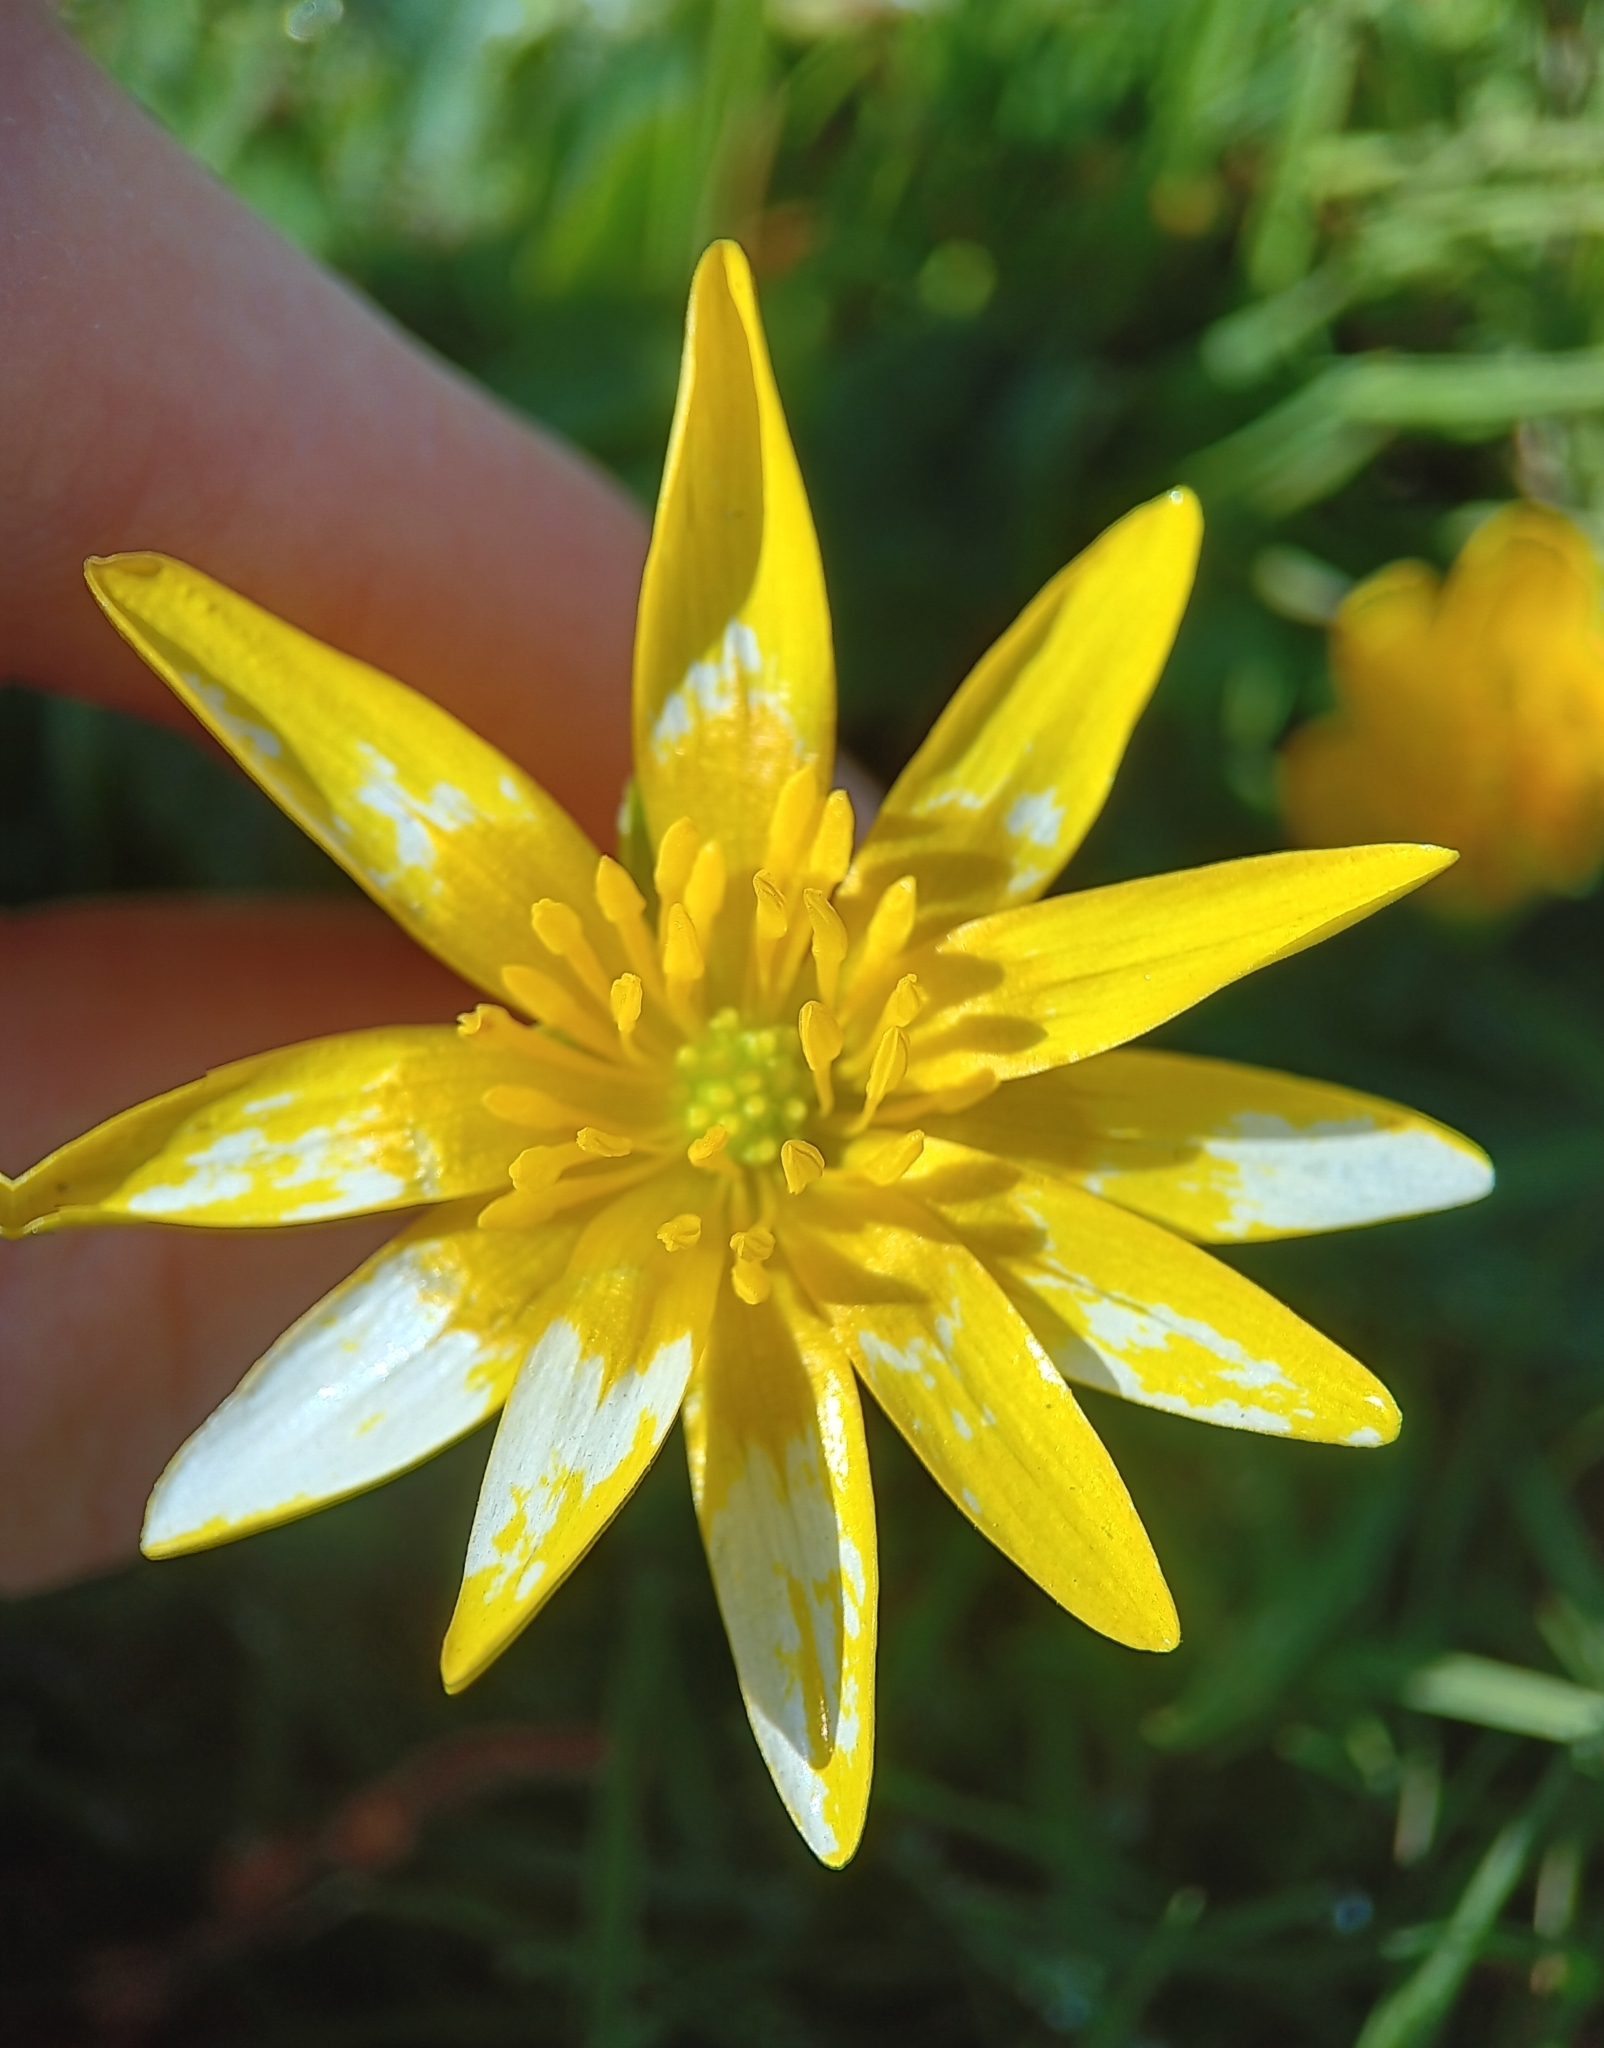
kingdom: Plantae
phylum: Tracheophyta
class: Magnoliopsida
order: Ranunculales
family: Ranunculaceae
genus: Ficaria
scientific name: Ficaria verna
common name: Lesser celandine
